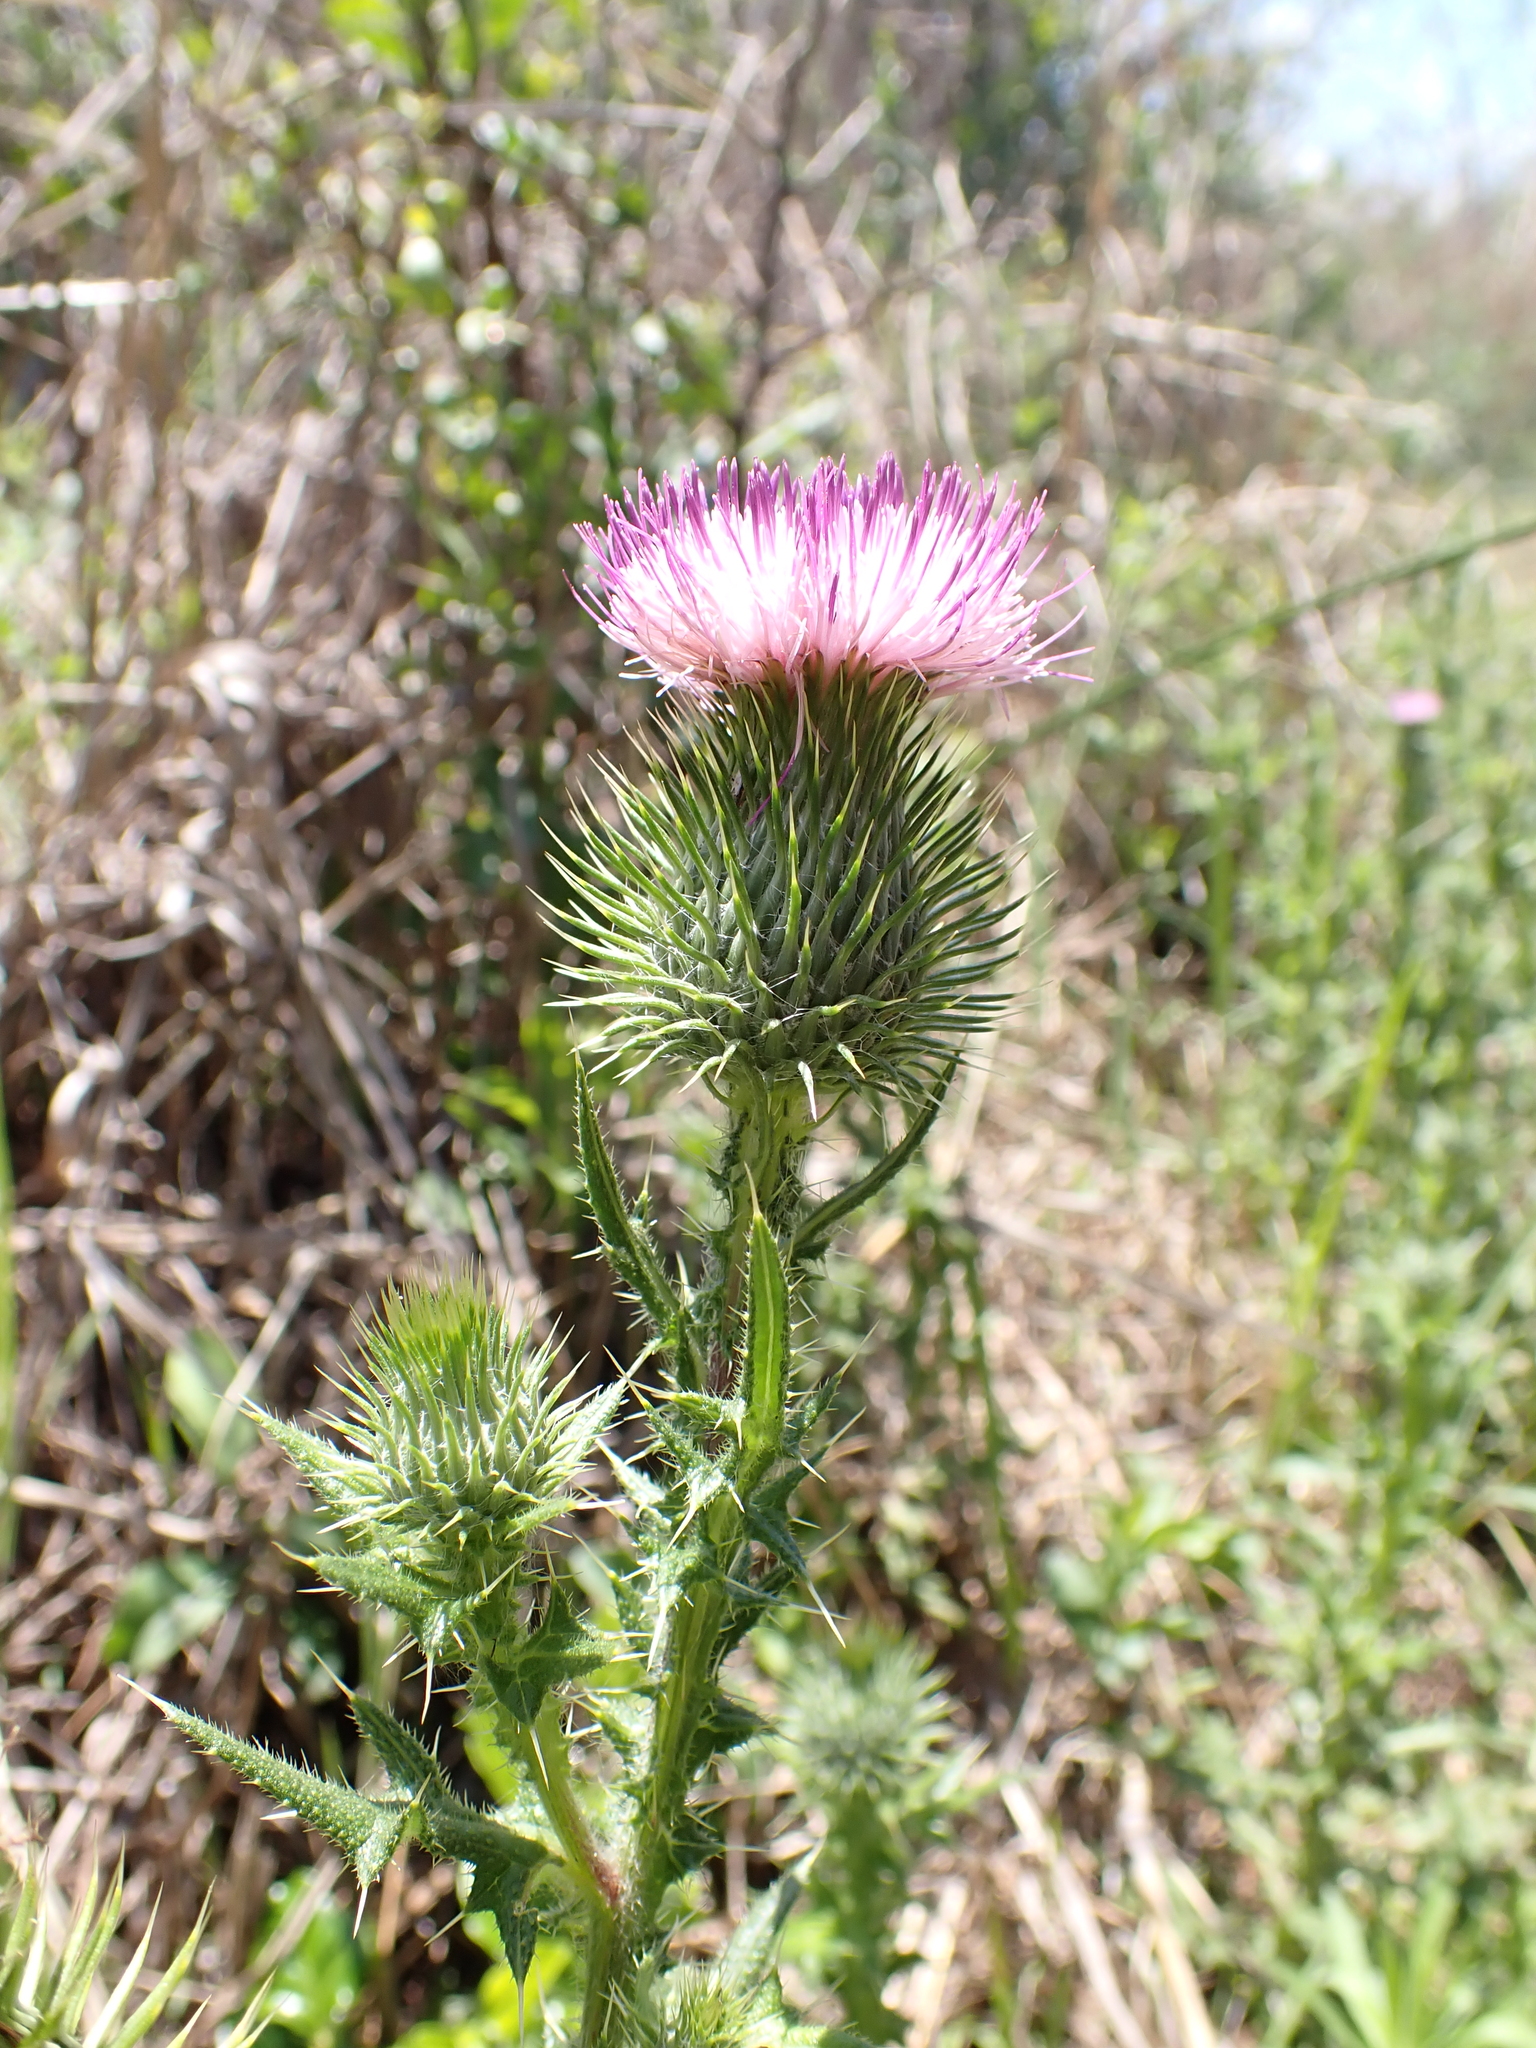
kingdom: Plantae
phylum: Tracheophyta
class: Magnoliopsida
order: Asterales
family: Asteraceae
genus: Cirsium
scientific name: Cirsium vulgare
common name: Bull thistle
